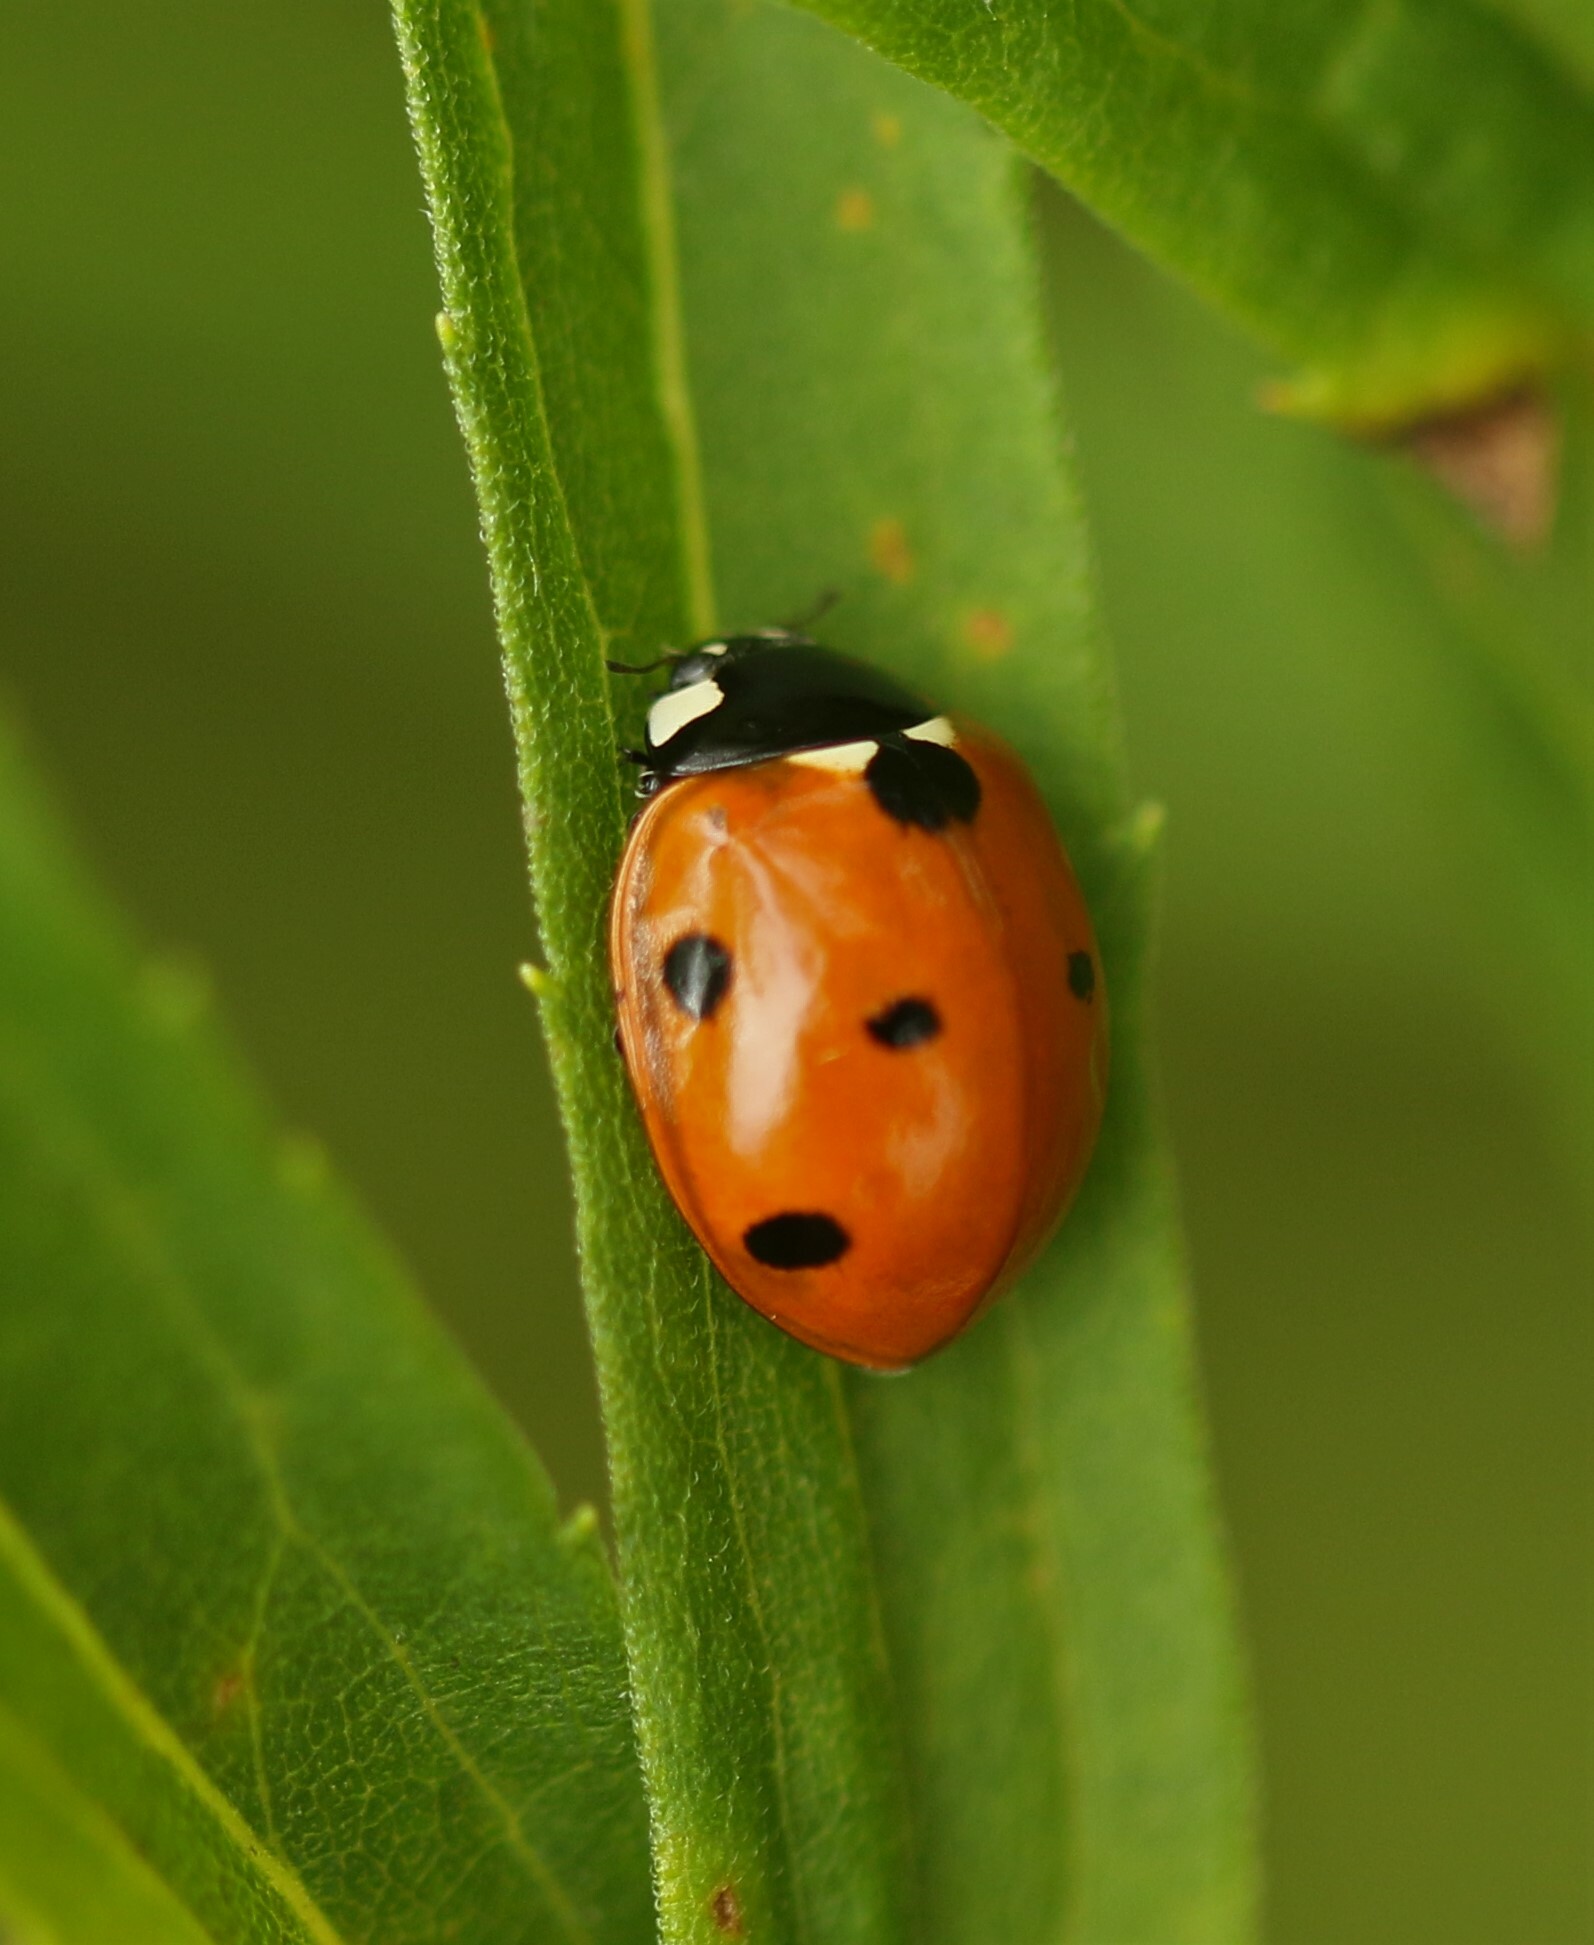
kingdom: Animalia
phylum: Arthropoda
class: Insecta
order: Coleoptera
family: Coccinellidae
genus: Coccinella
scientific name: Coccinella septempunctata
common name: Sevenspotted lady beetle
